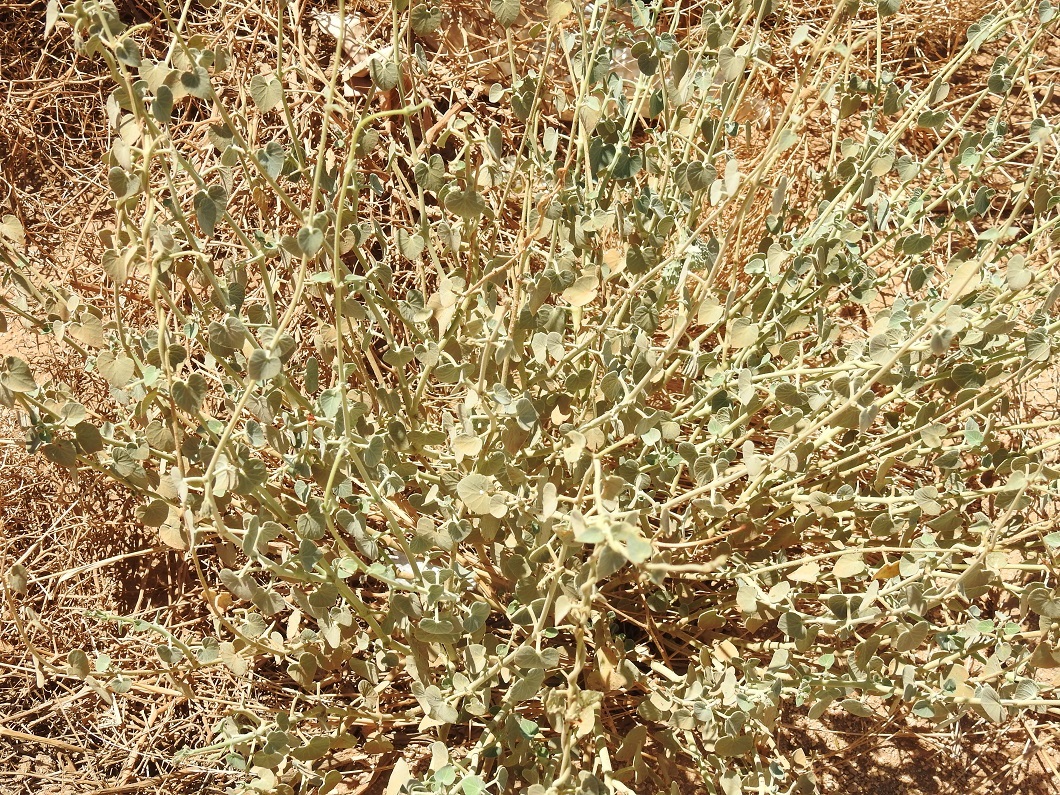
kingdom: Plantae
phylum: Tracheophyta
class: Magnoliopsida
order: Gentianales
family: Apocynaceae
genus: Pergularia
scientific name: Pergularia tomentosa
